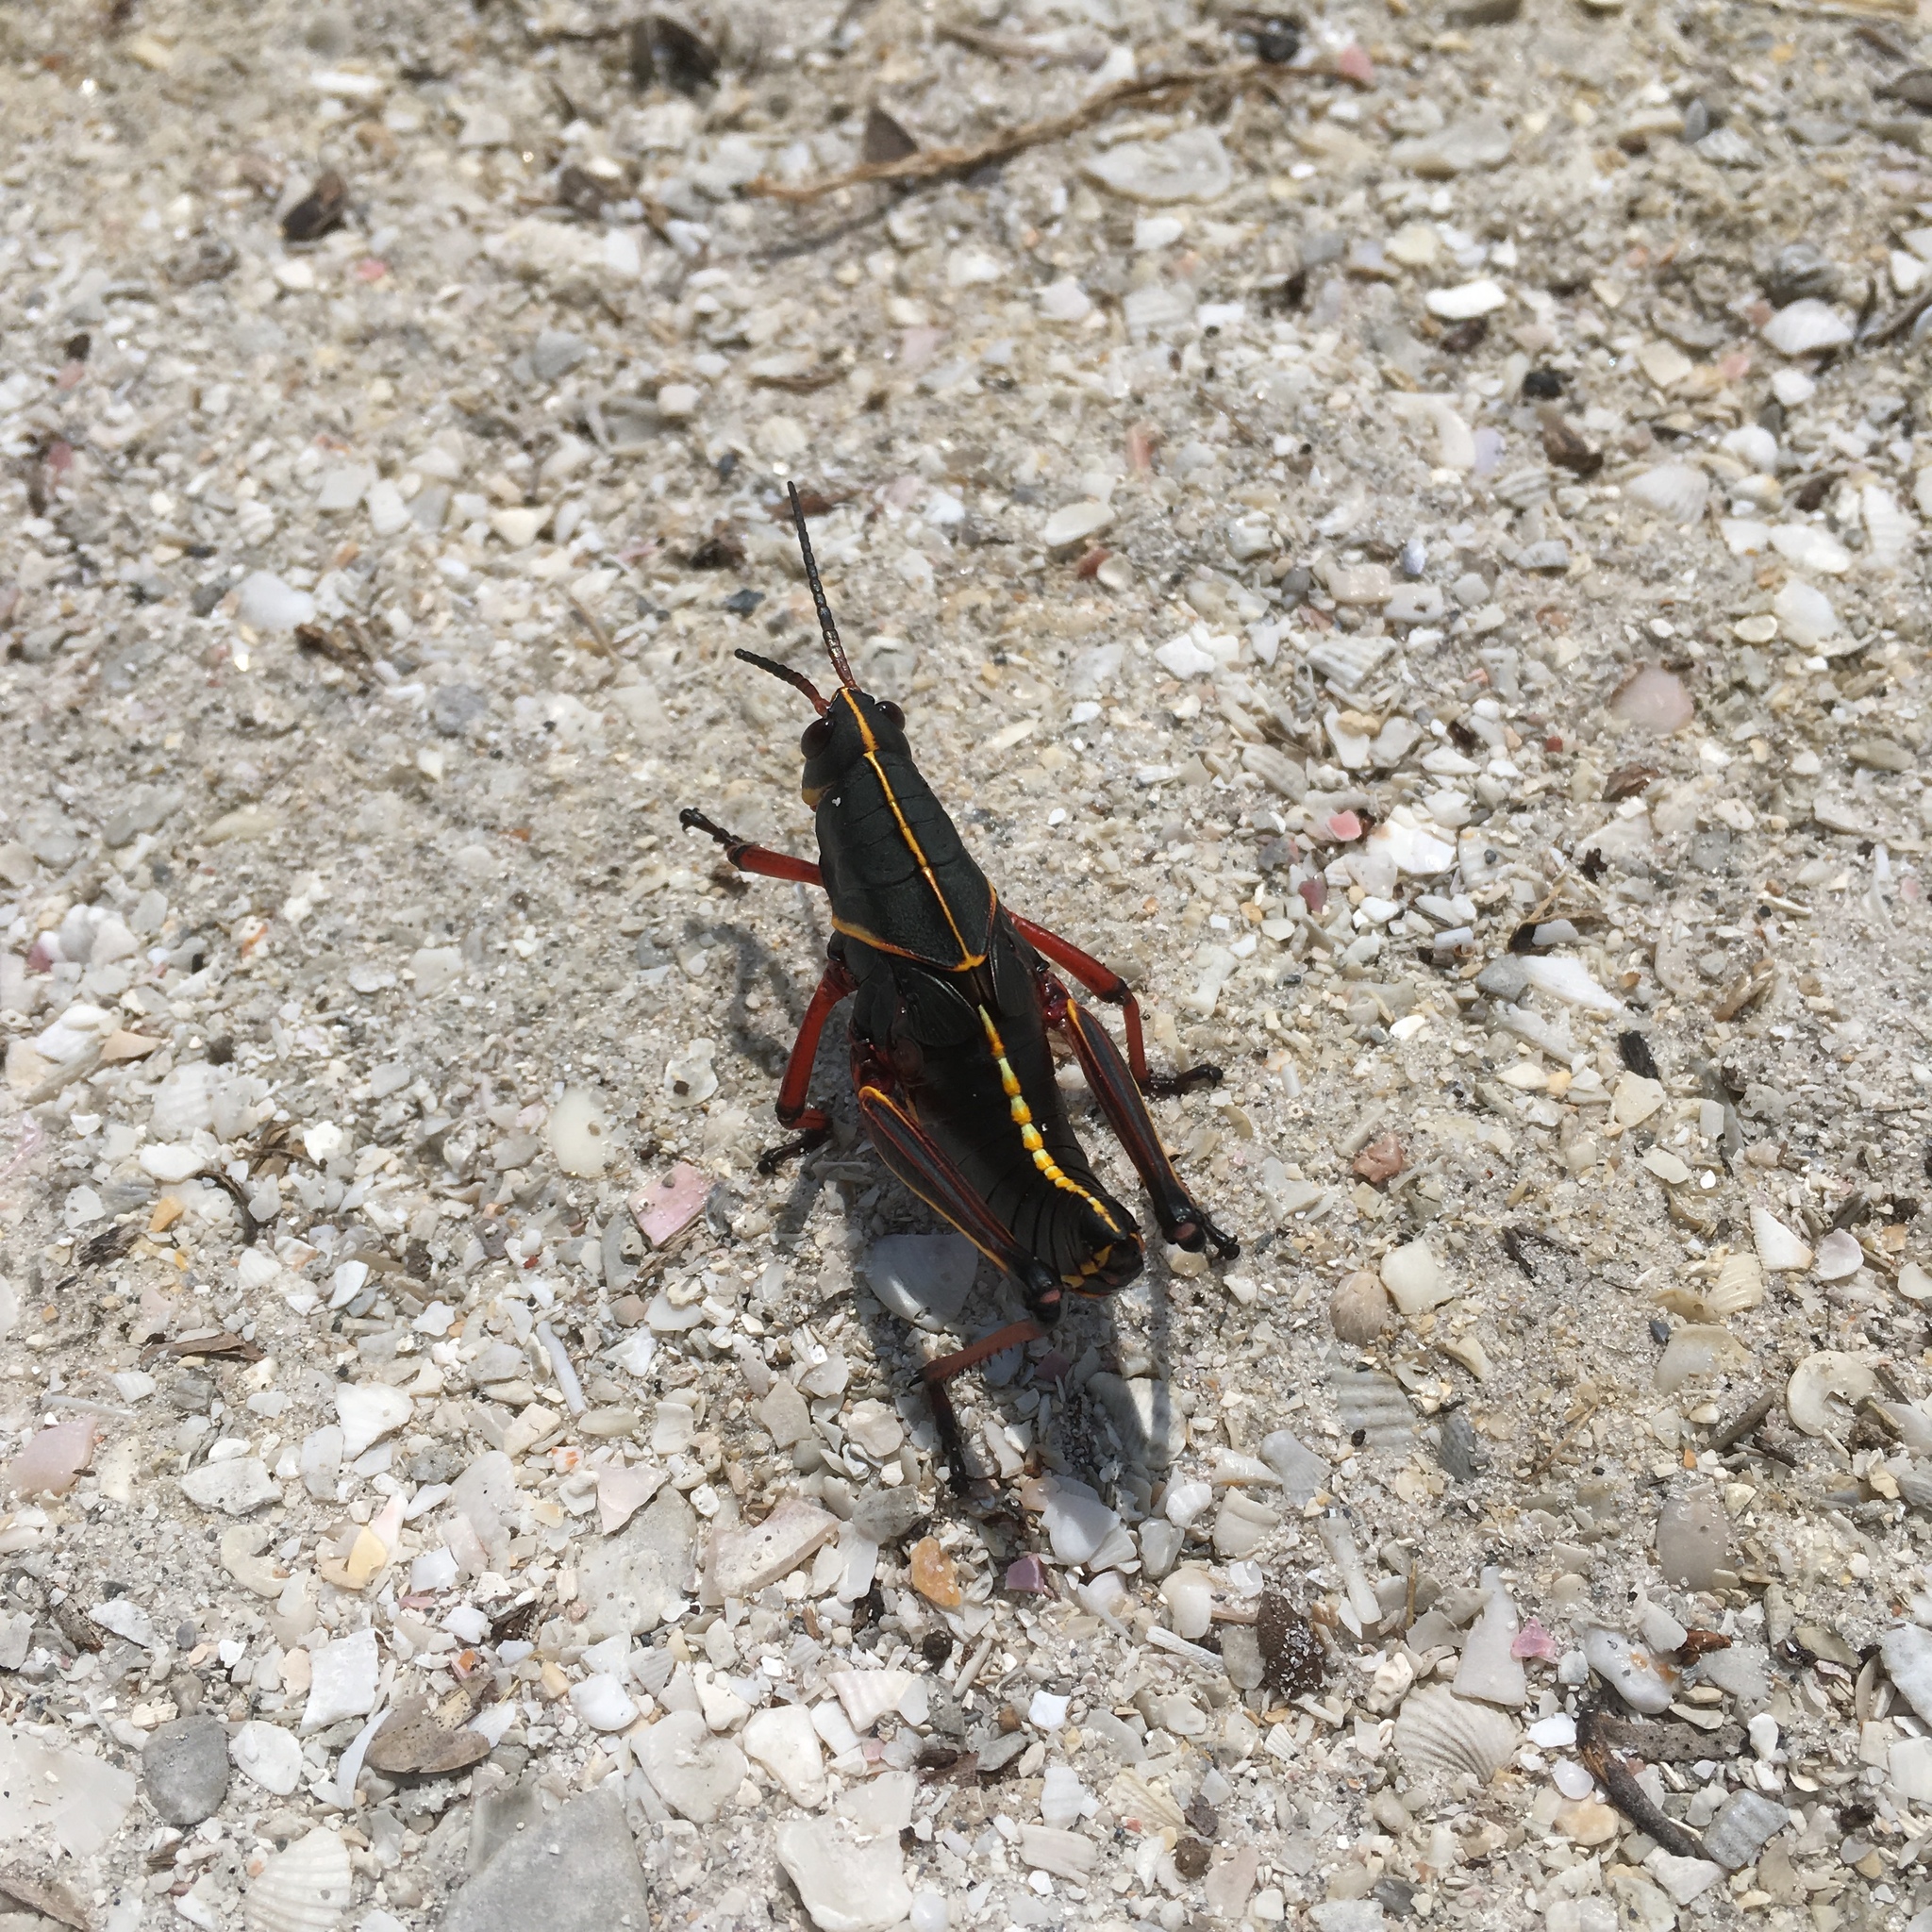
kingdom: Animalia
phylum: Arthropoda
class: Insecta
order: Orthoptera
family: Romaleidae
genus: Romalea
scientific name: Romalea microptera
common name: Eastern lubber grasshopper
